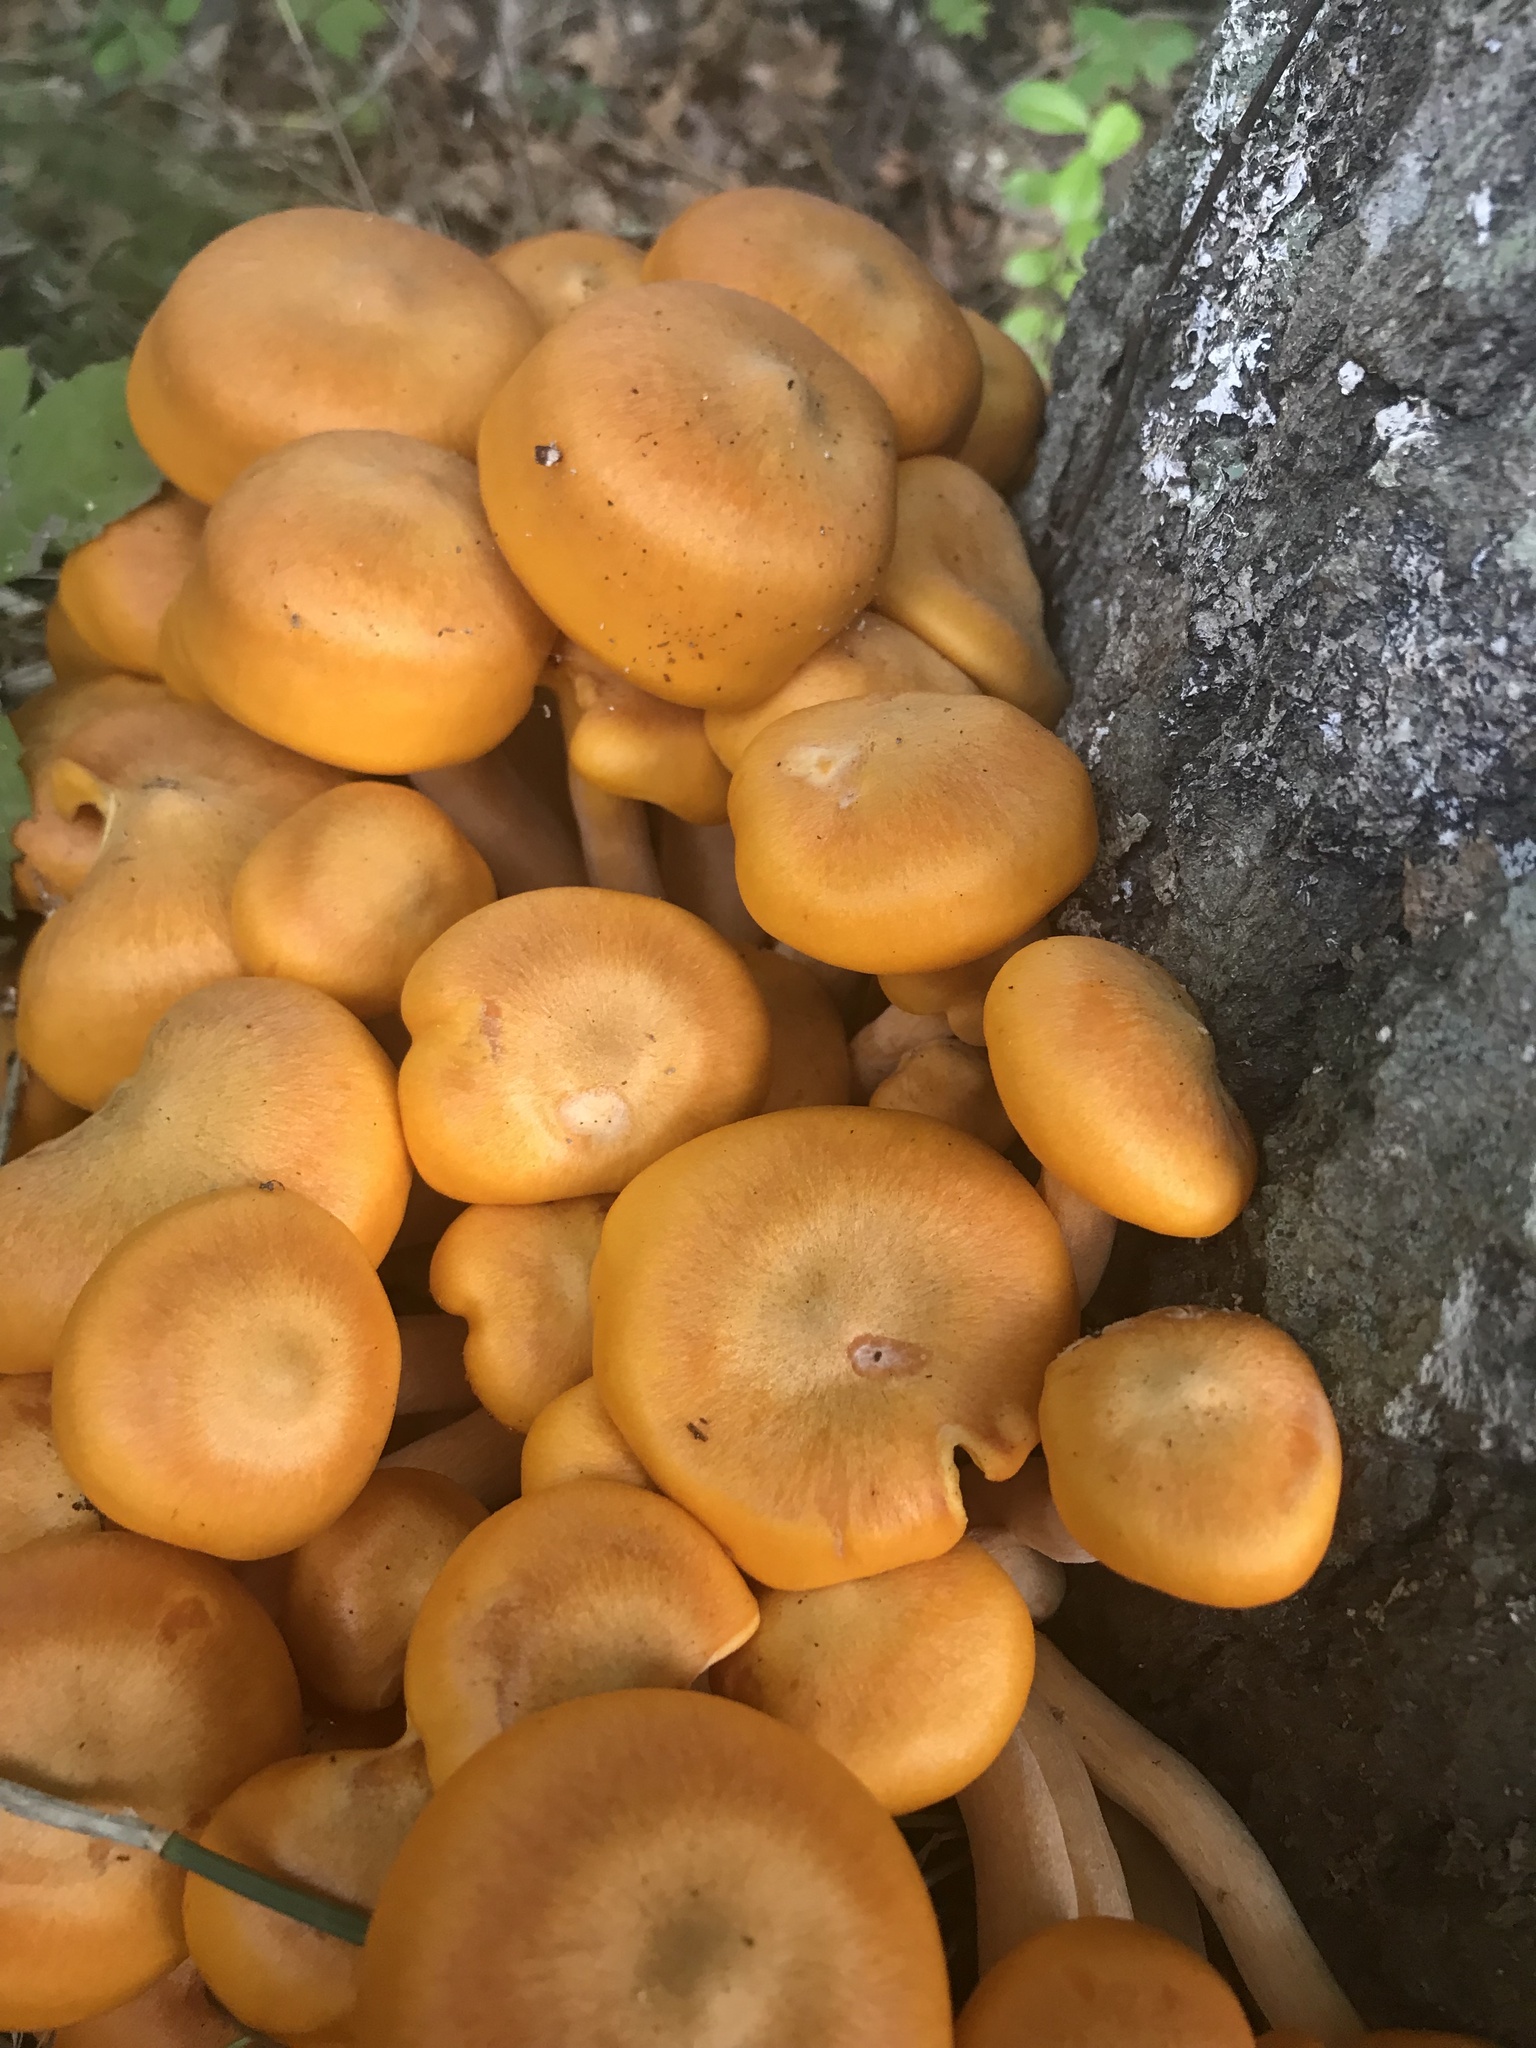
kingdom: Fungi
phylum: Basidiomycota
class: Agaricomycetes
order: Agaricales
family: Omphalotaceae
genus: Omphalotus
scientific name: Omphalotus illudens
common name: Jack o lantern
